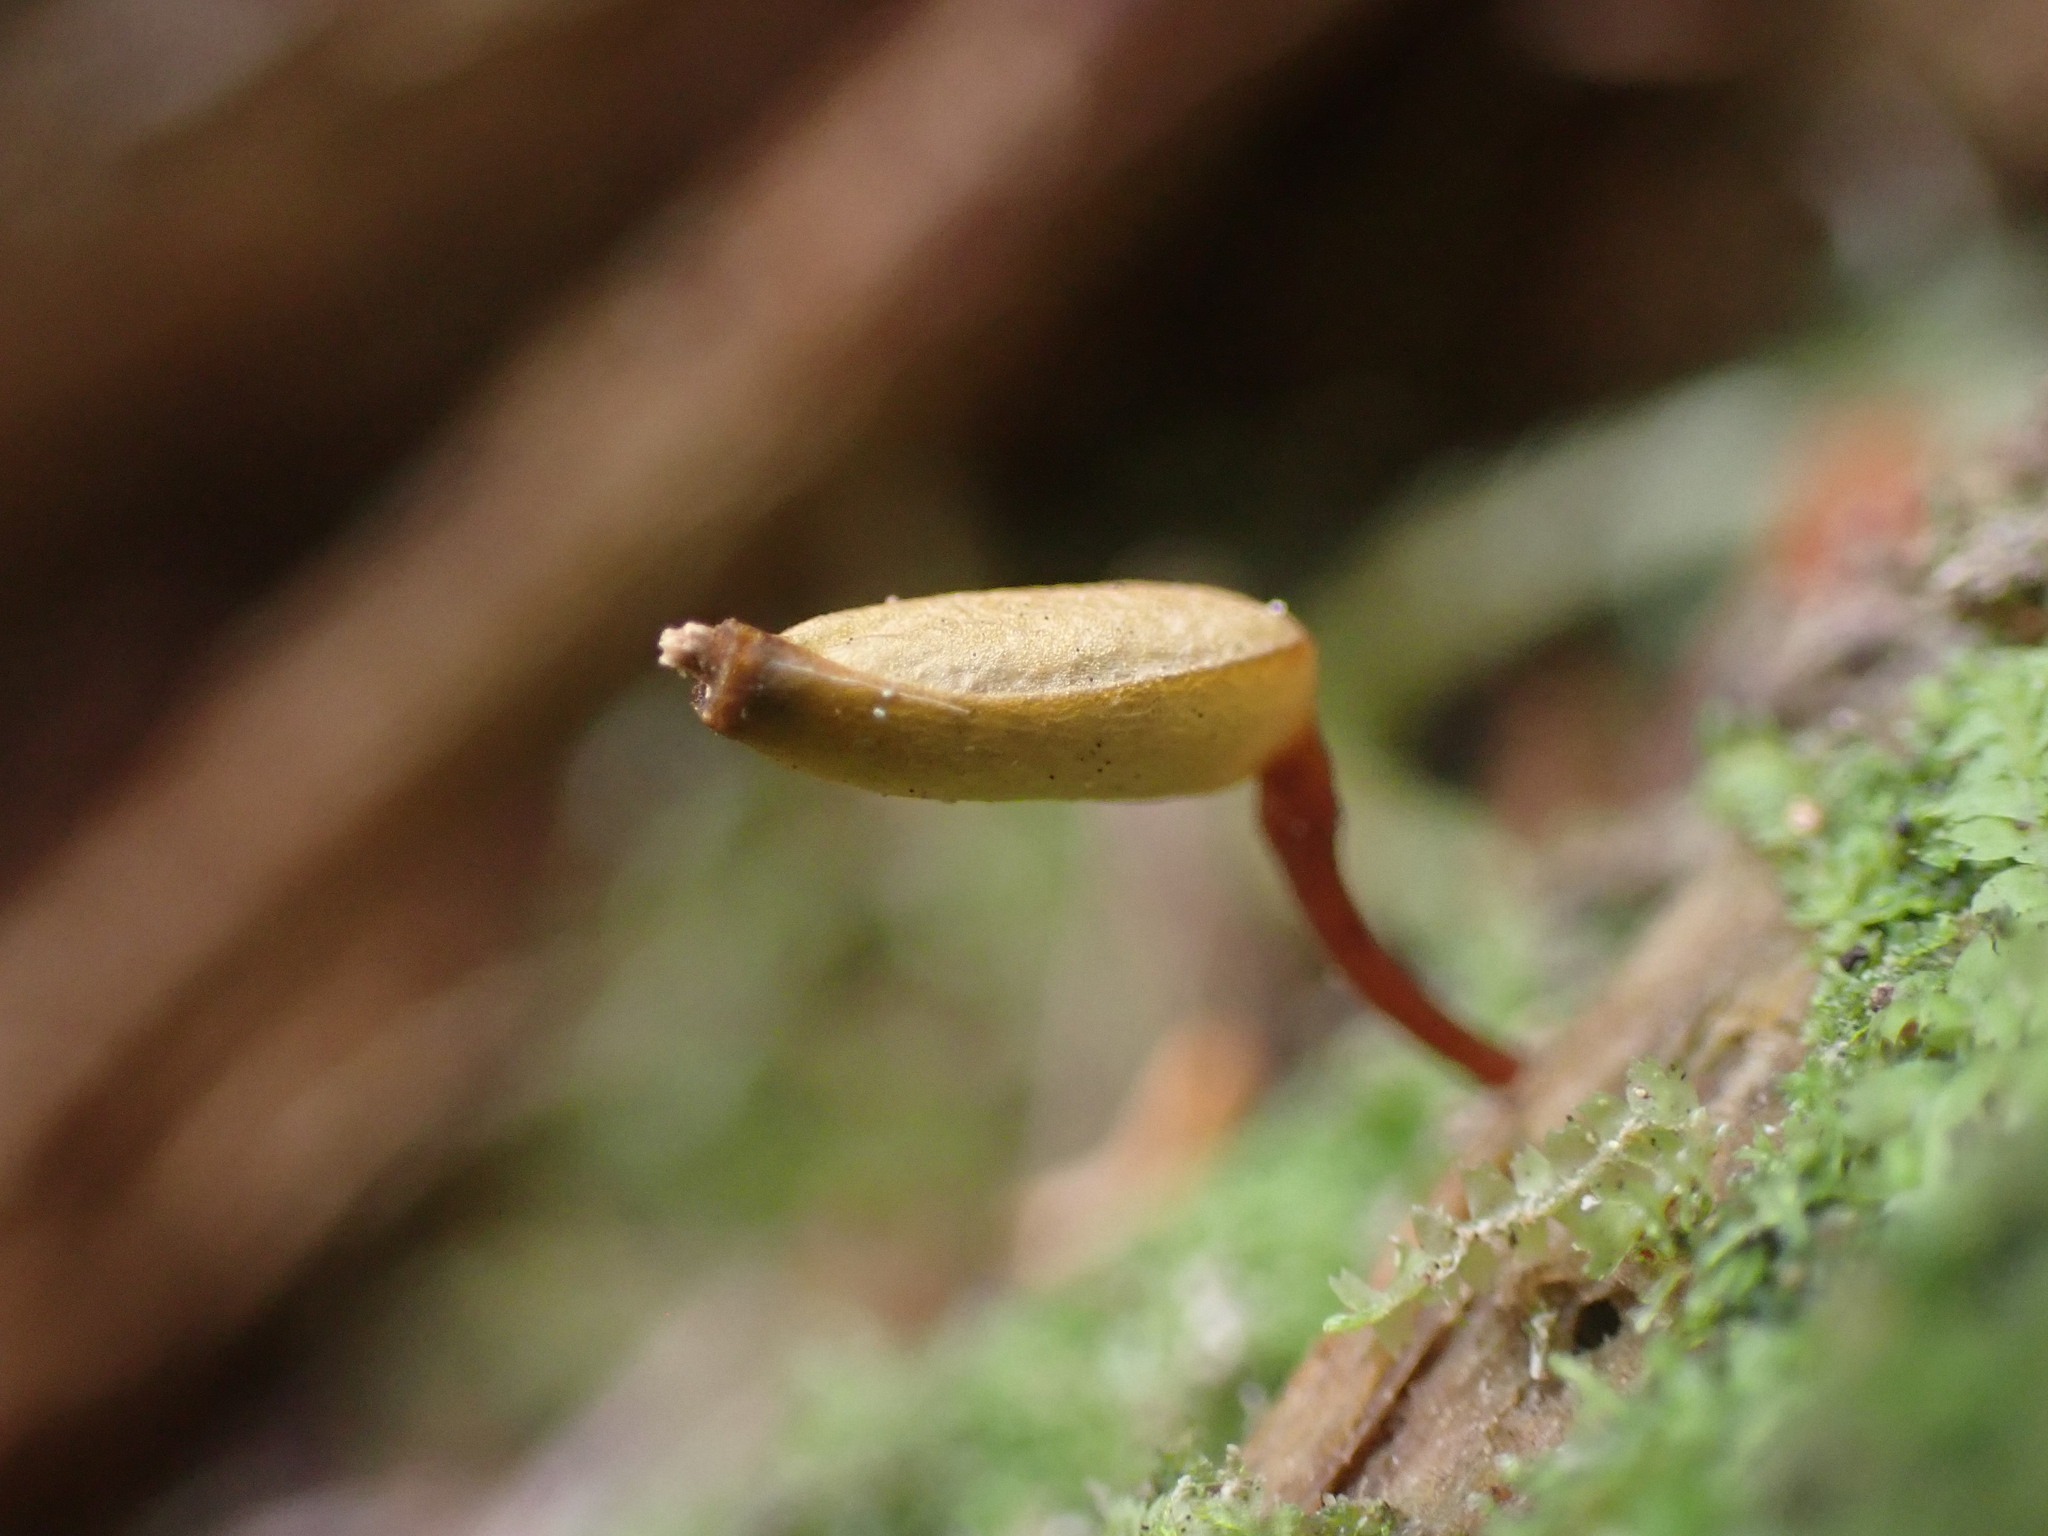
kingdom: Plantae
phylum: Bryophyta
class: Bryopsida
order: Buxbaumiales
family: Buxbaumiaceae
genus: Buxbaumia
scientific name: Buxbaumia aphylla
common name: Brown shield-moss
